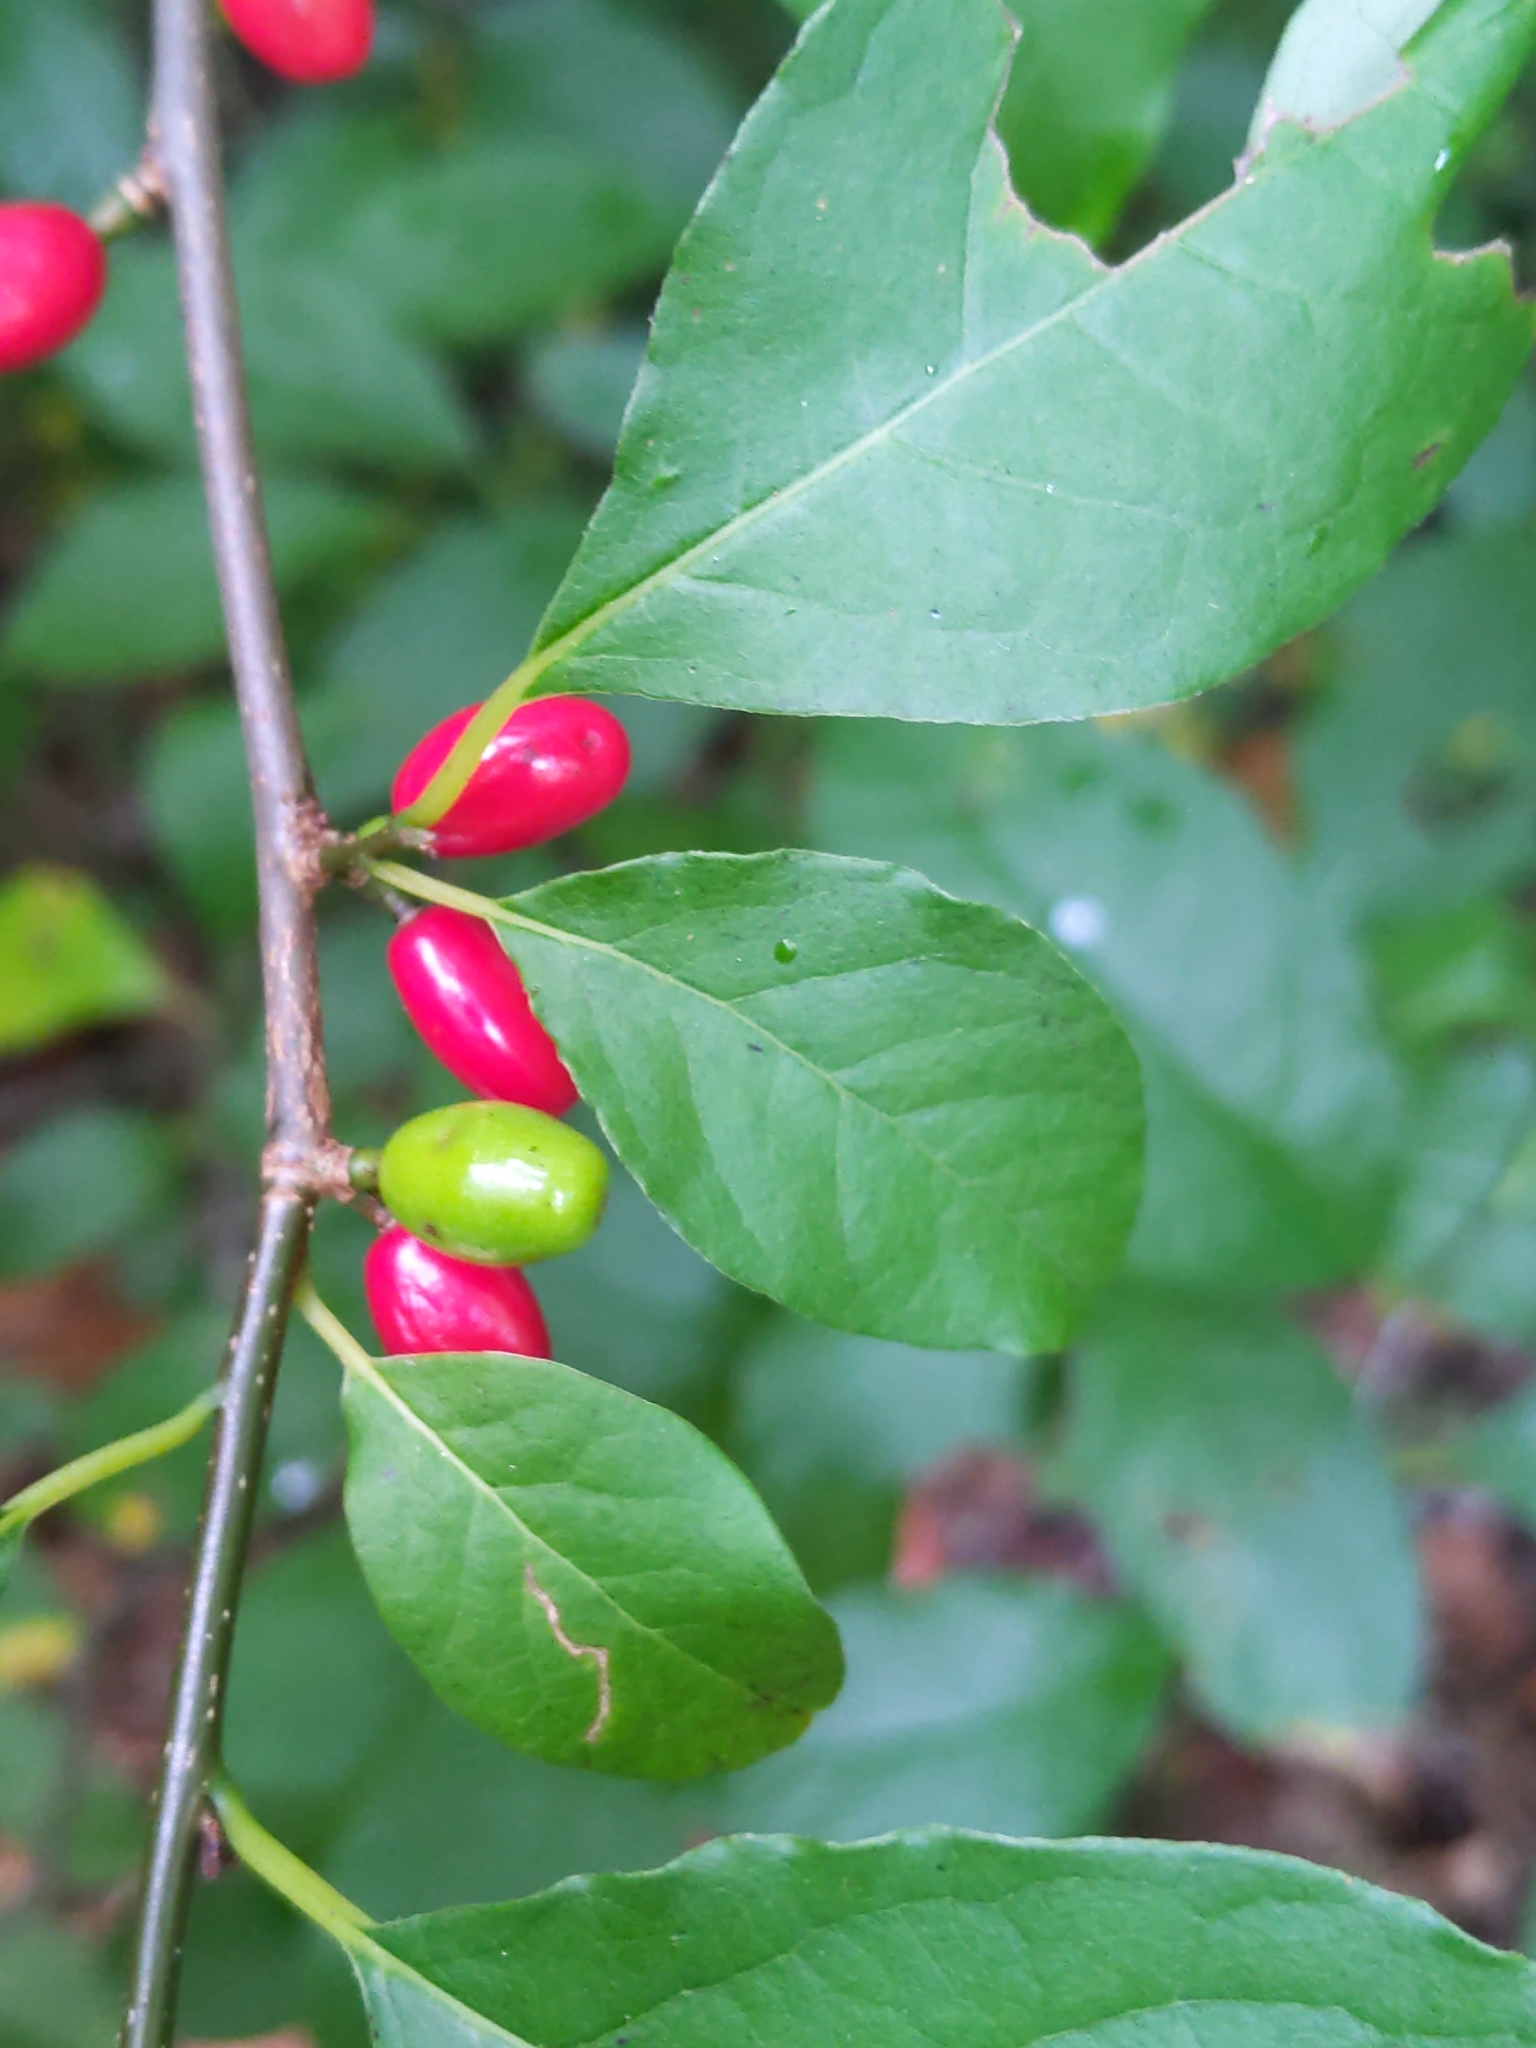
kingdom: Plantae
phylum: Tracheophyta
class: Magnoliopsida
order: Laurales
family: Lauraceae
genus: Lindera
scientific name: Lindera benzoin
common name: Spicebush
